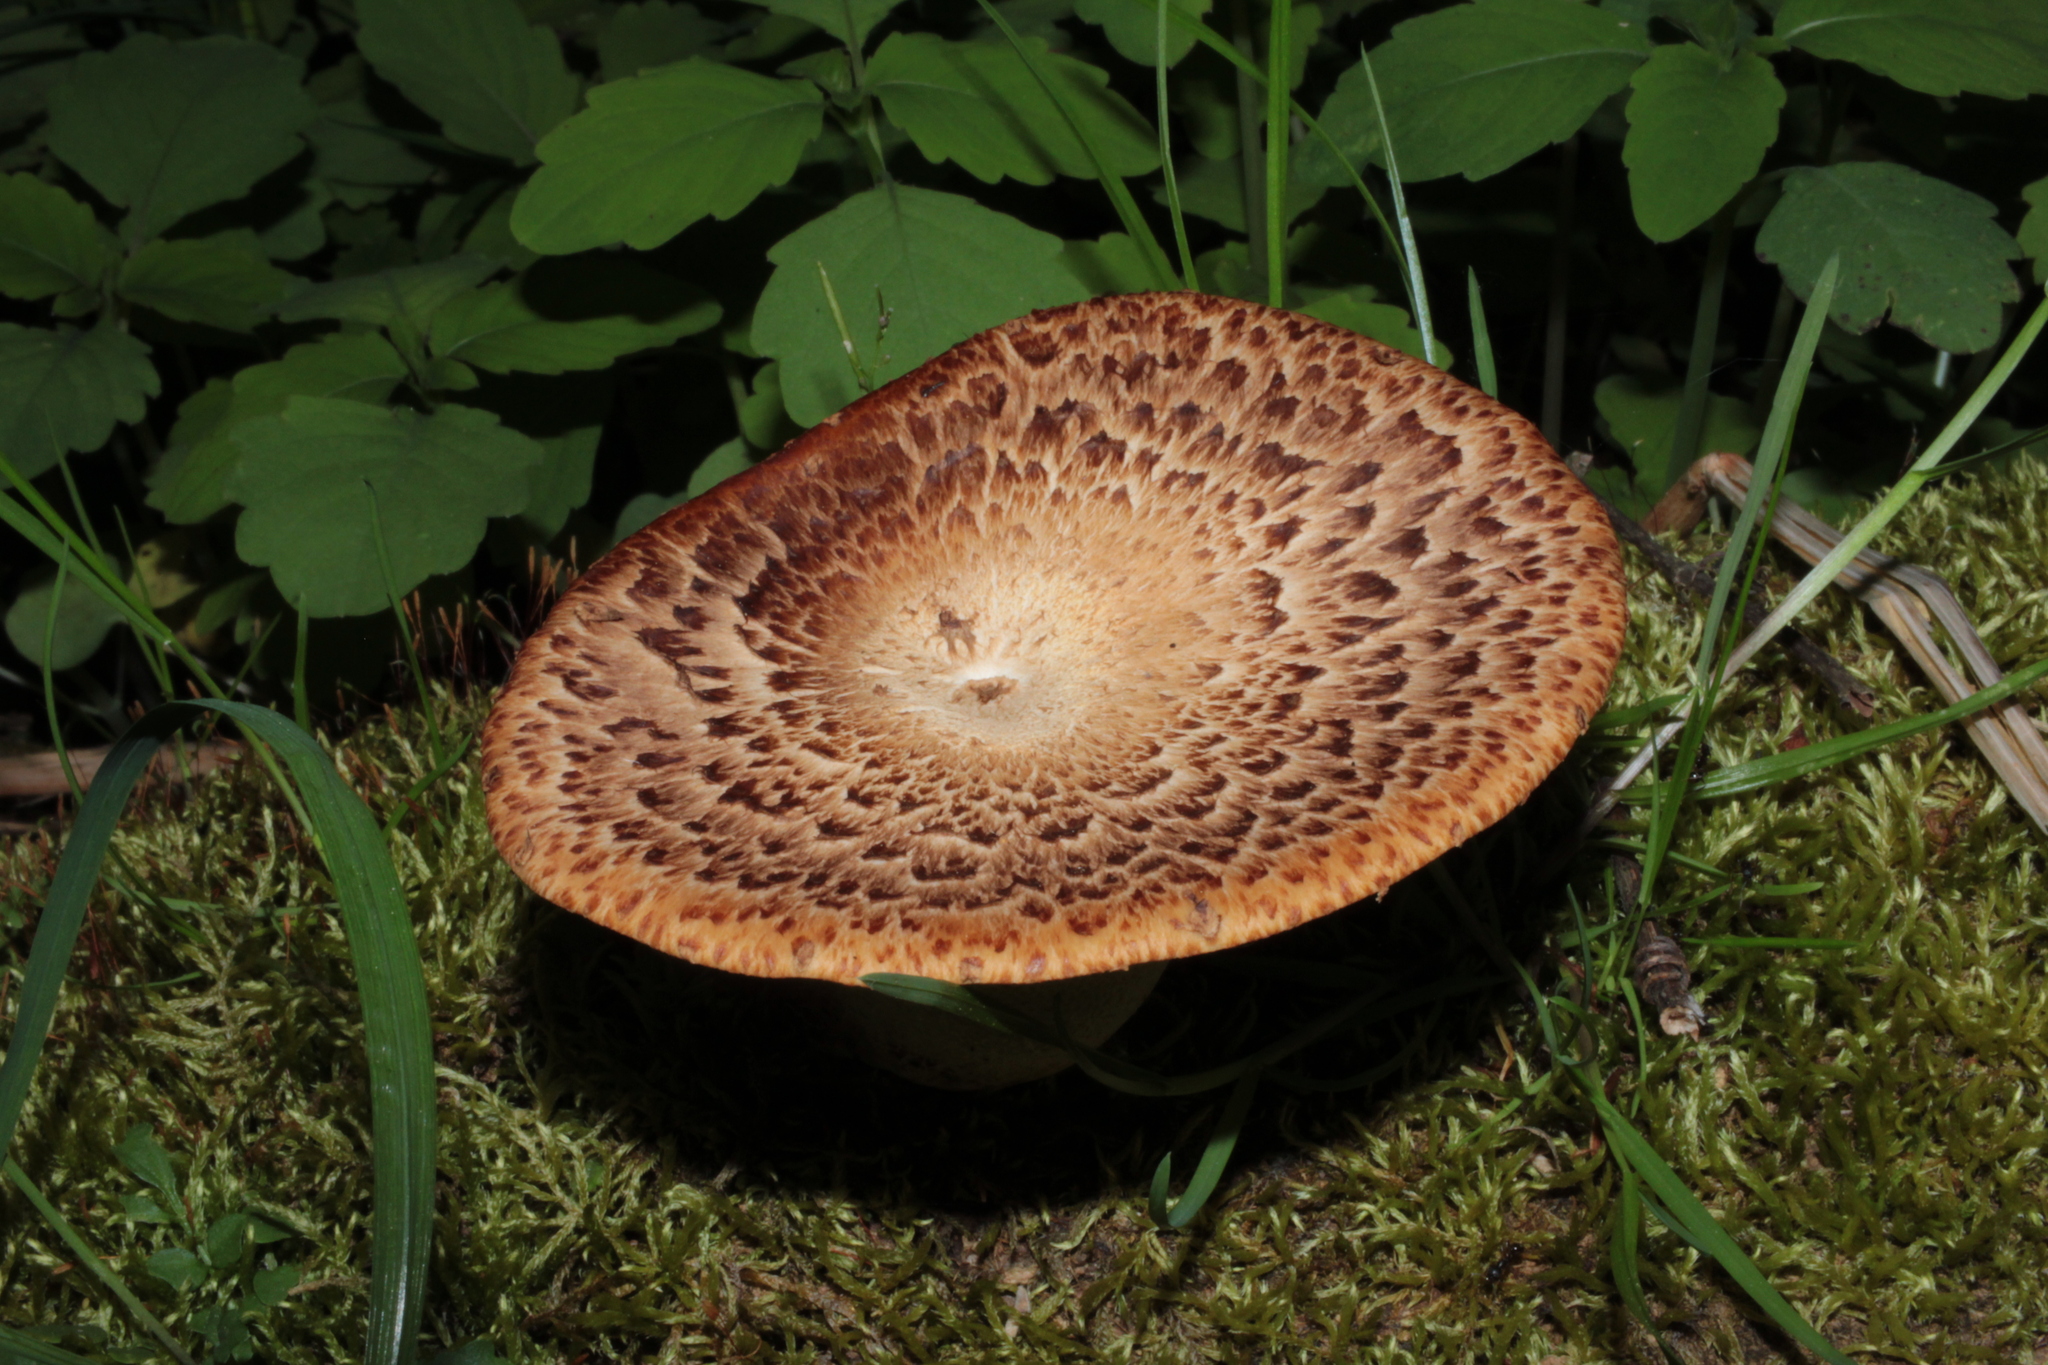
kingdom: Fungi
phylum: Basidiomycota
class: Agaricomycetes
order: Polyporales
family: Polyporaceae
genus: Cerioporus
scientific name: Cerioporus squamosus
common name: Dryad's saddle
